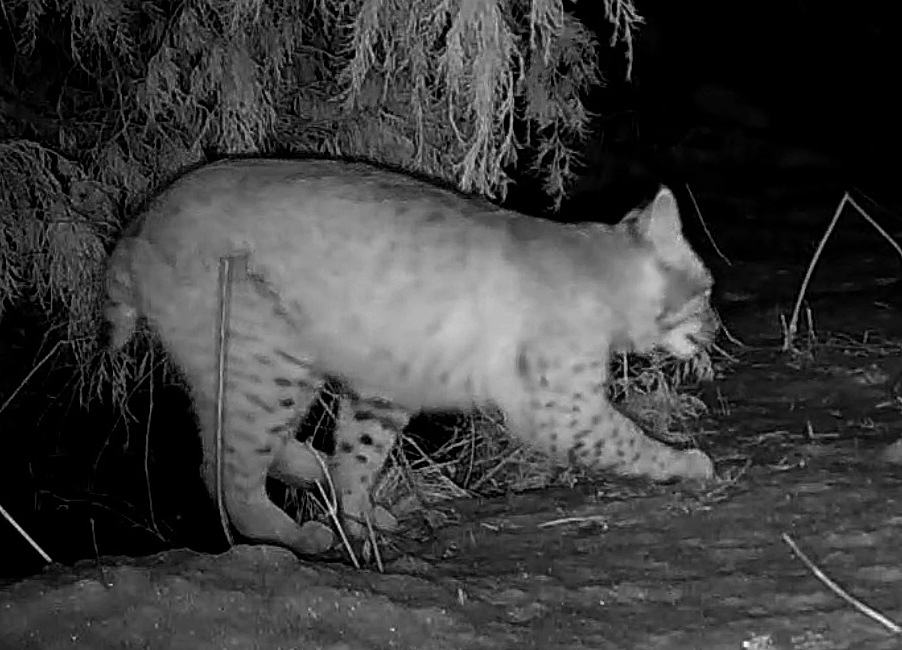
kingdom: Animalia
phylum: Chordata
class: Mammalia
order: Carnivora
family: Felidae
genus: Lynx
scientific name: Lynx rufus
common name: Bobcat
